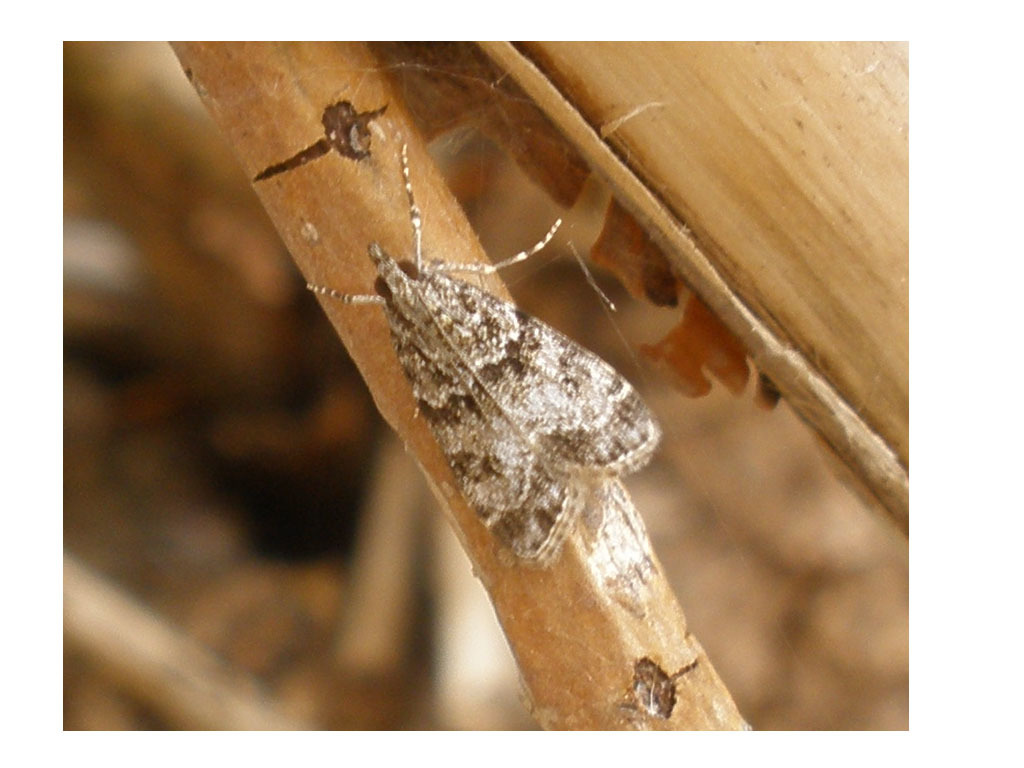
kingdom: Animalia
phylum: Arthropoda
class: Insecta
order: Lepidoptera
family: Crambidae
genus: Eudonia
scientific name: Eudonia mercurella
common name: Small grey
